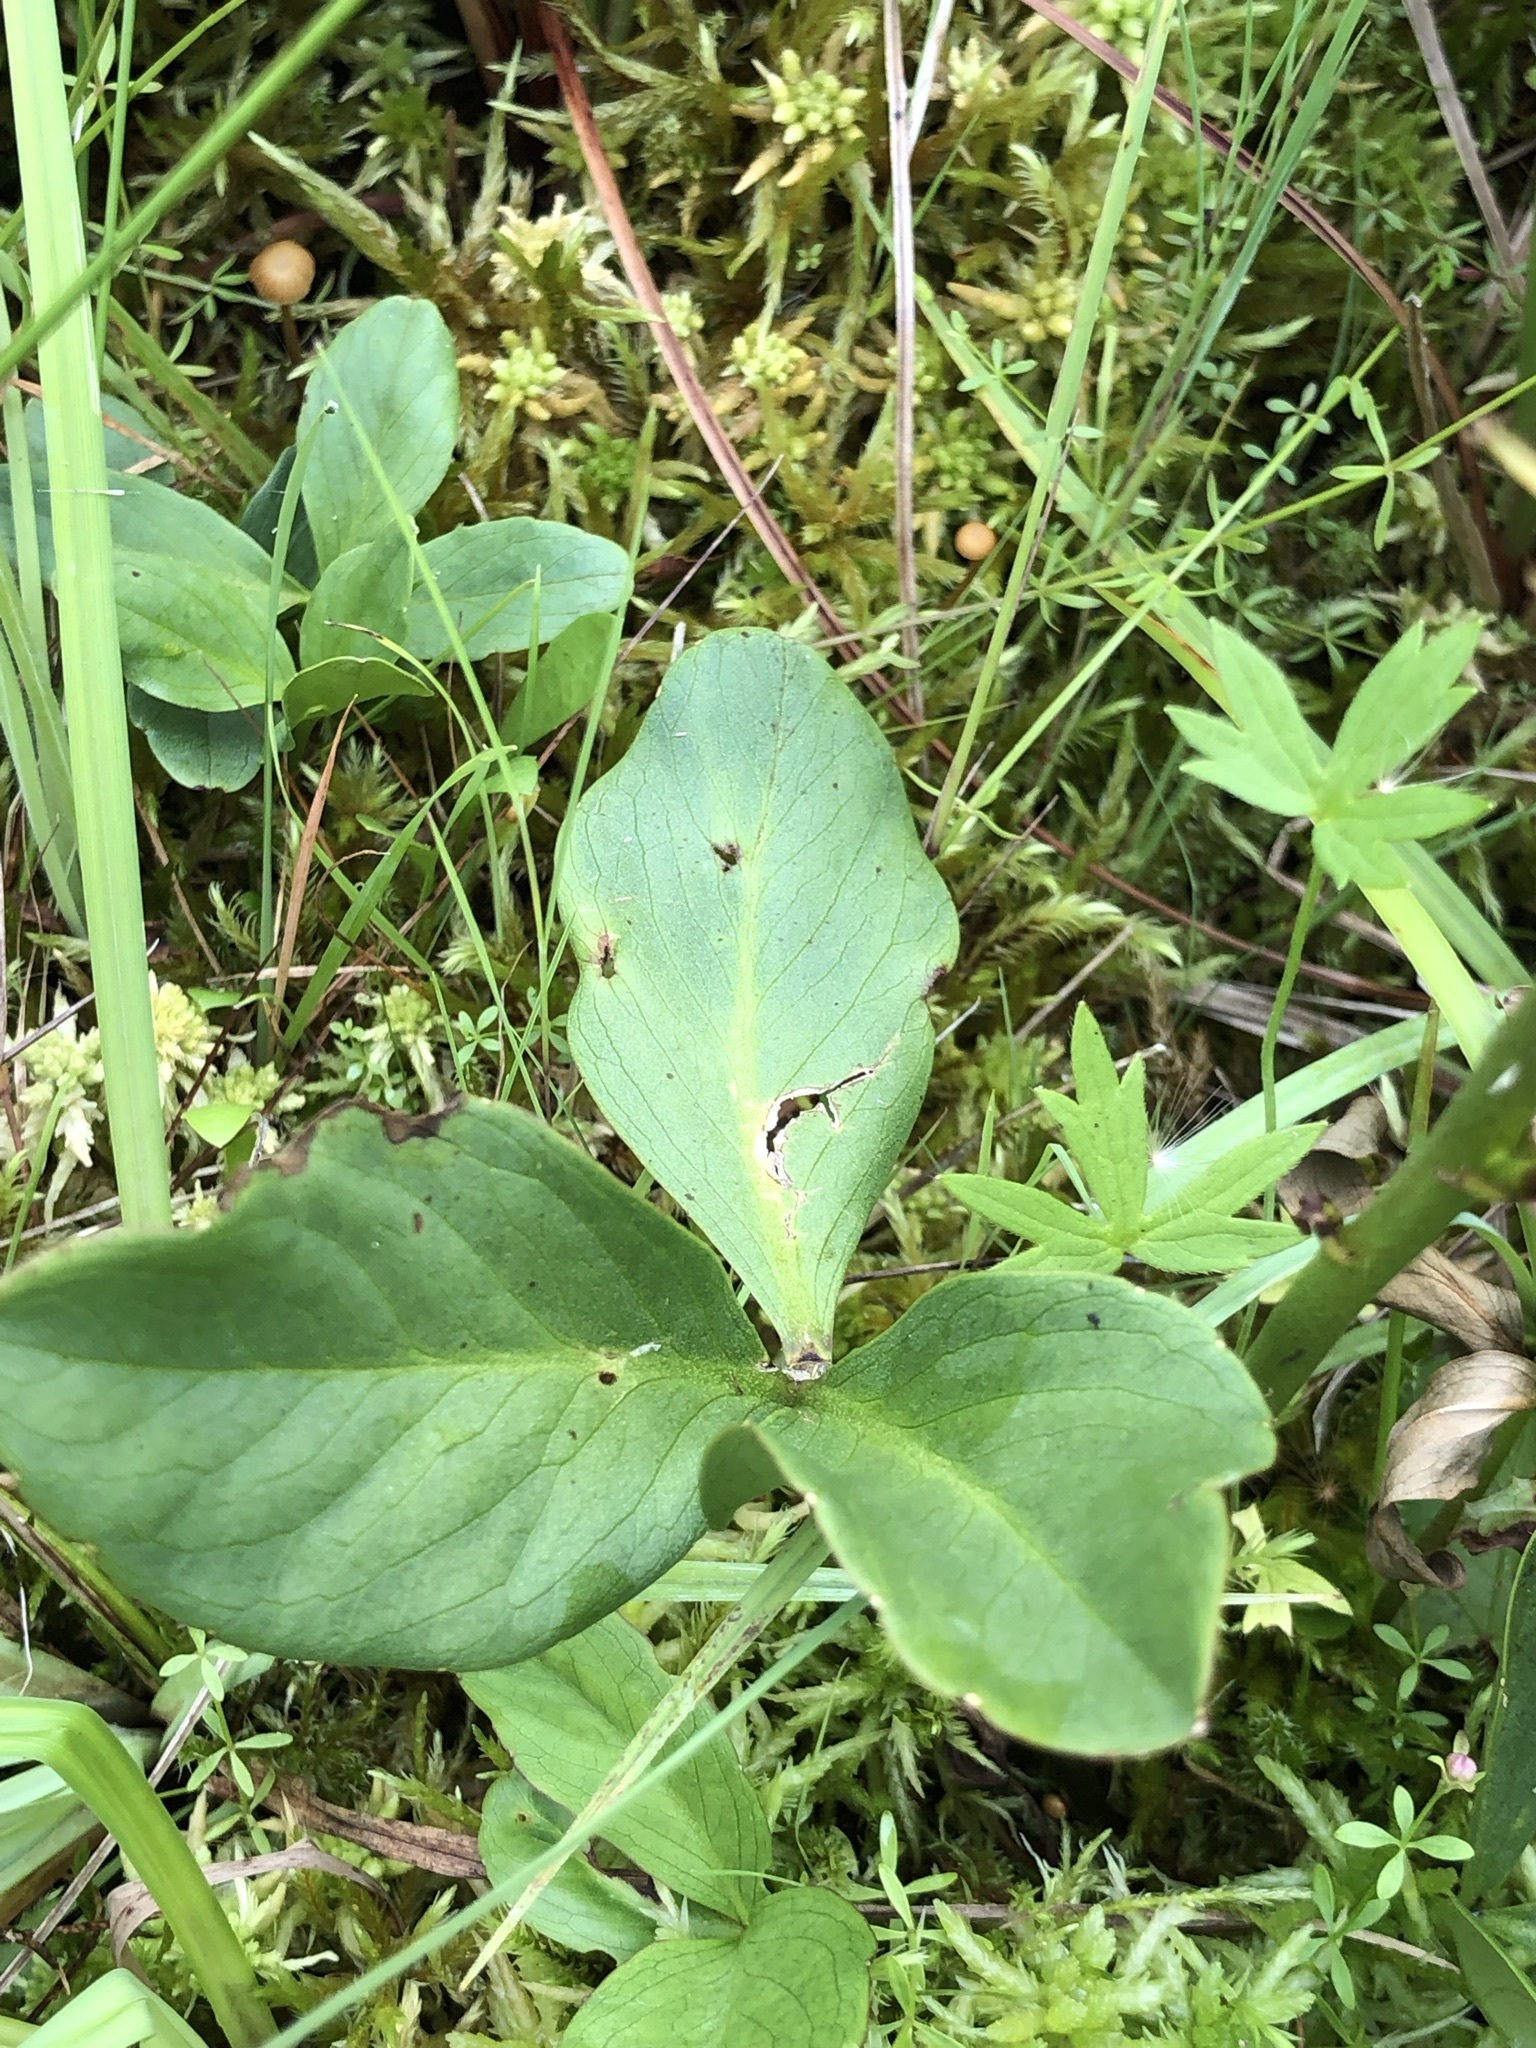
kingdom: Plantae
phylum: Tracheophyta
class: Magnoliopsida
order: Asterales
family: Menyanthaceae
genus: Menyanthes
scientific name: Menyanthes trifoliata
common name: Bogbean
